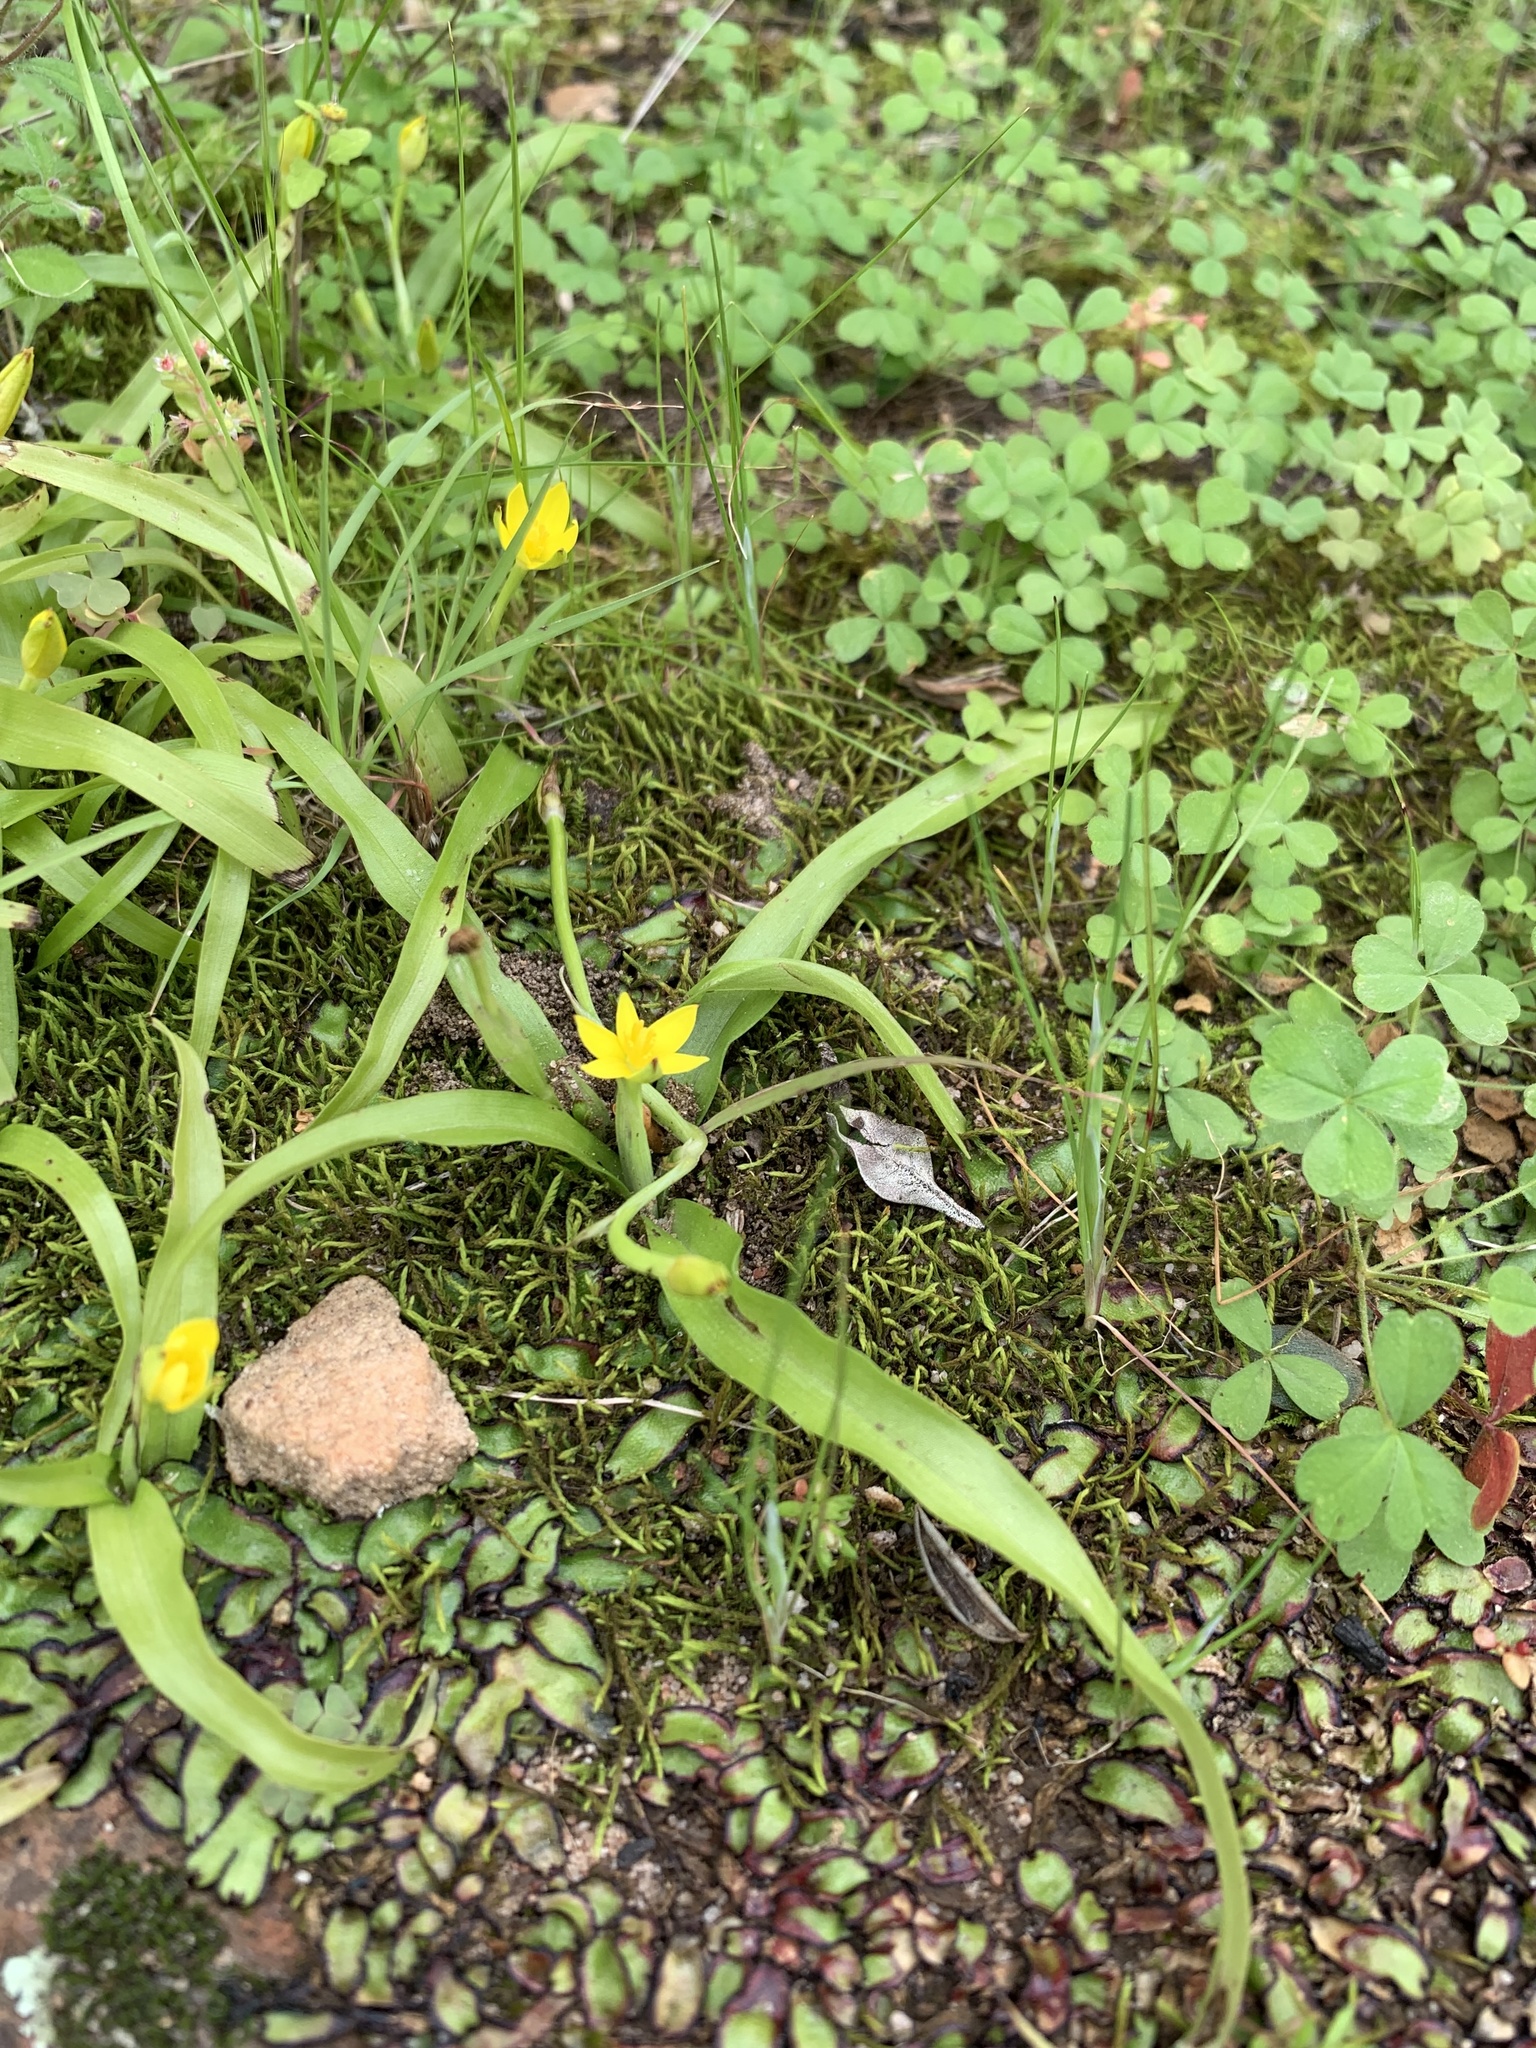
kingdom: Plantae
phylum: Tracheophyta
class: Liliopsida
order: Asparagales
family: Hypoxidaceae
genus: Pauridia
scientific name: Pauridia maximiliani
